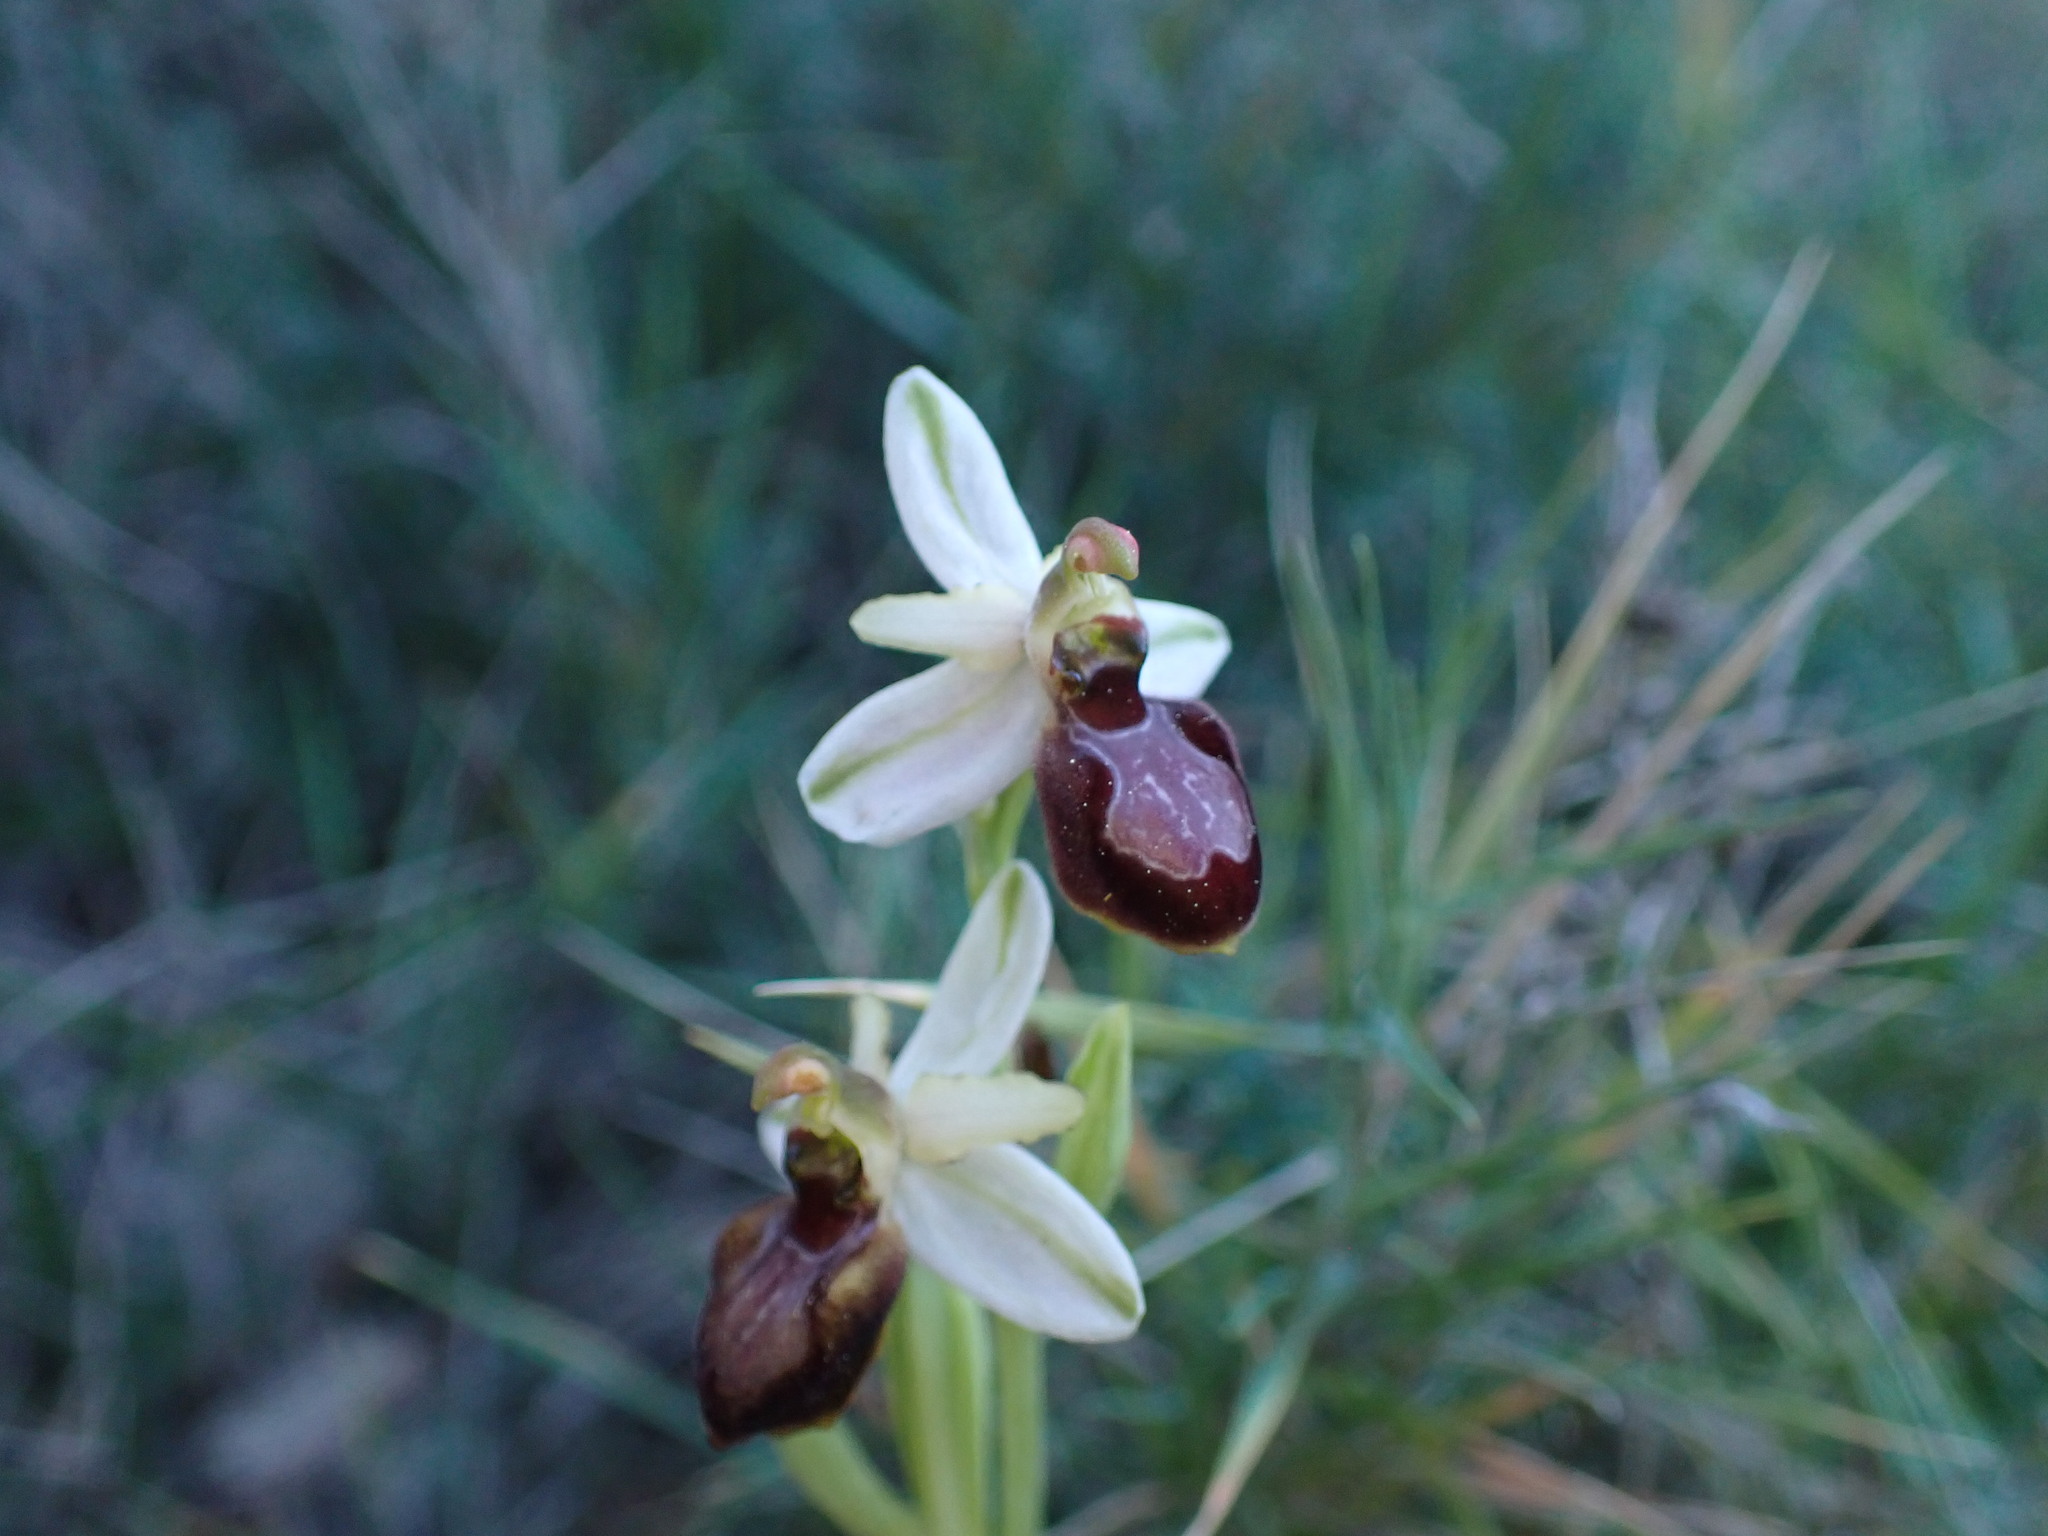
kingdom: Plantae
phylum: Tracheophyta
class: Liliopsida
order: Asparagales
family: Orchidaceae
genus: Ophrys
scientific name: Ophrys arachnitiformis
